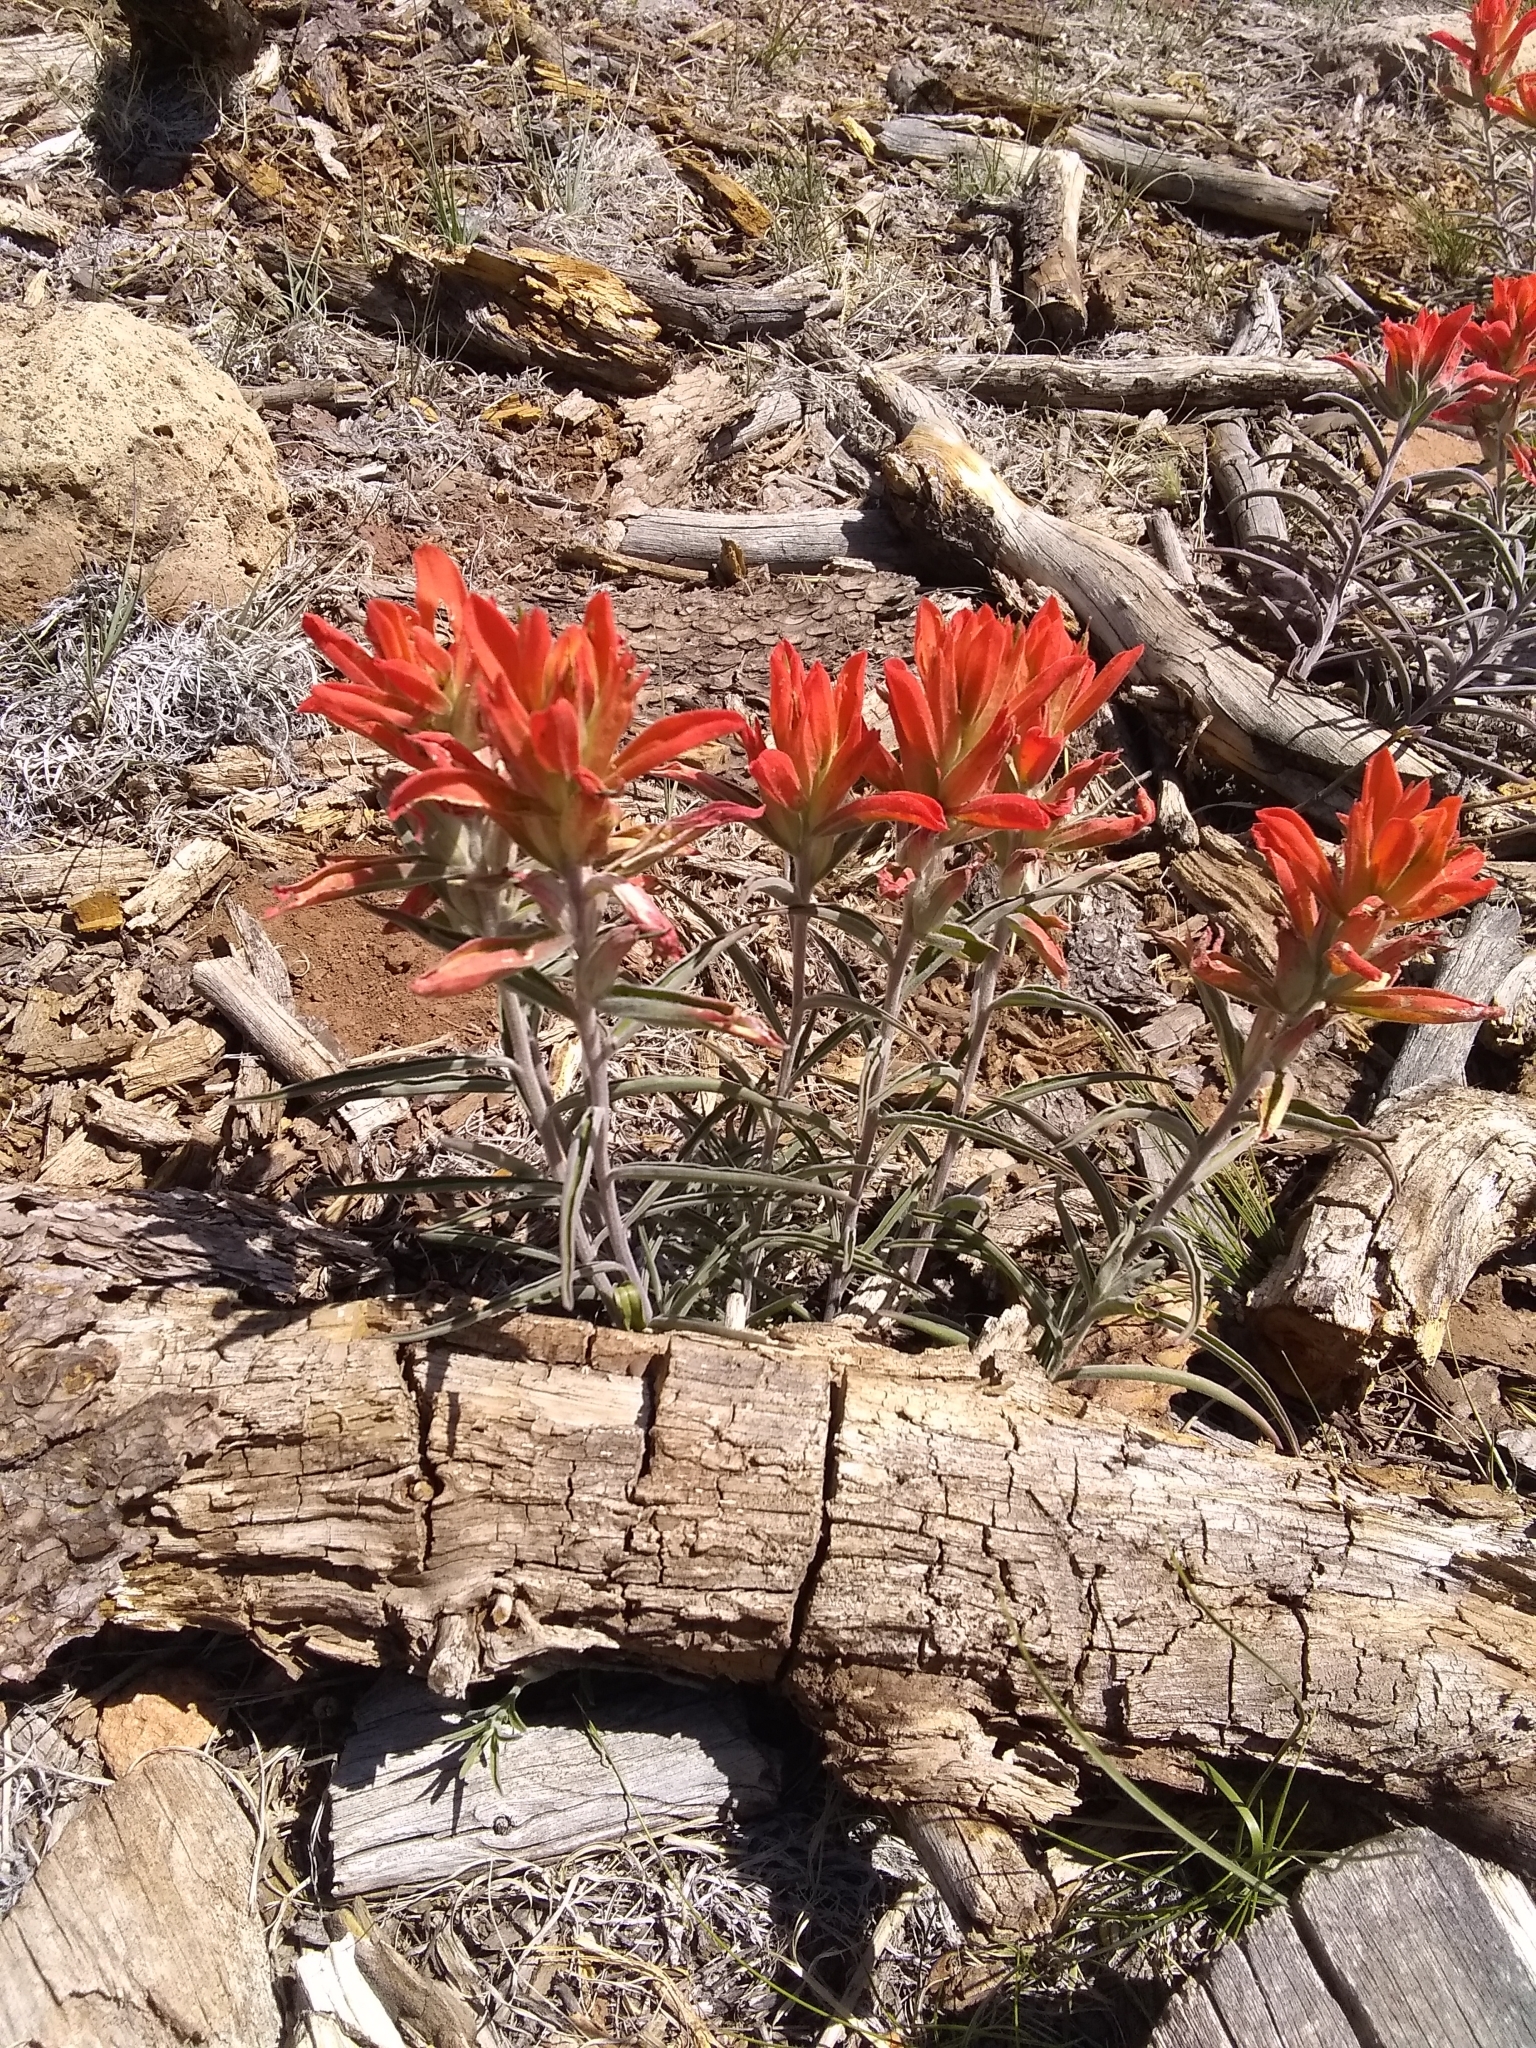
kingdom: Plantae
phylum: Tracheophyta
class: Magnoliopsida
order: Lamiales
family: Orobanchaceae
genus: Castilleja
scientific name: Castilleja integra
